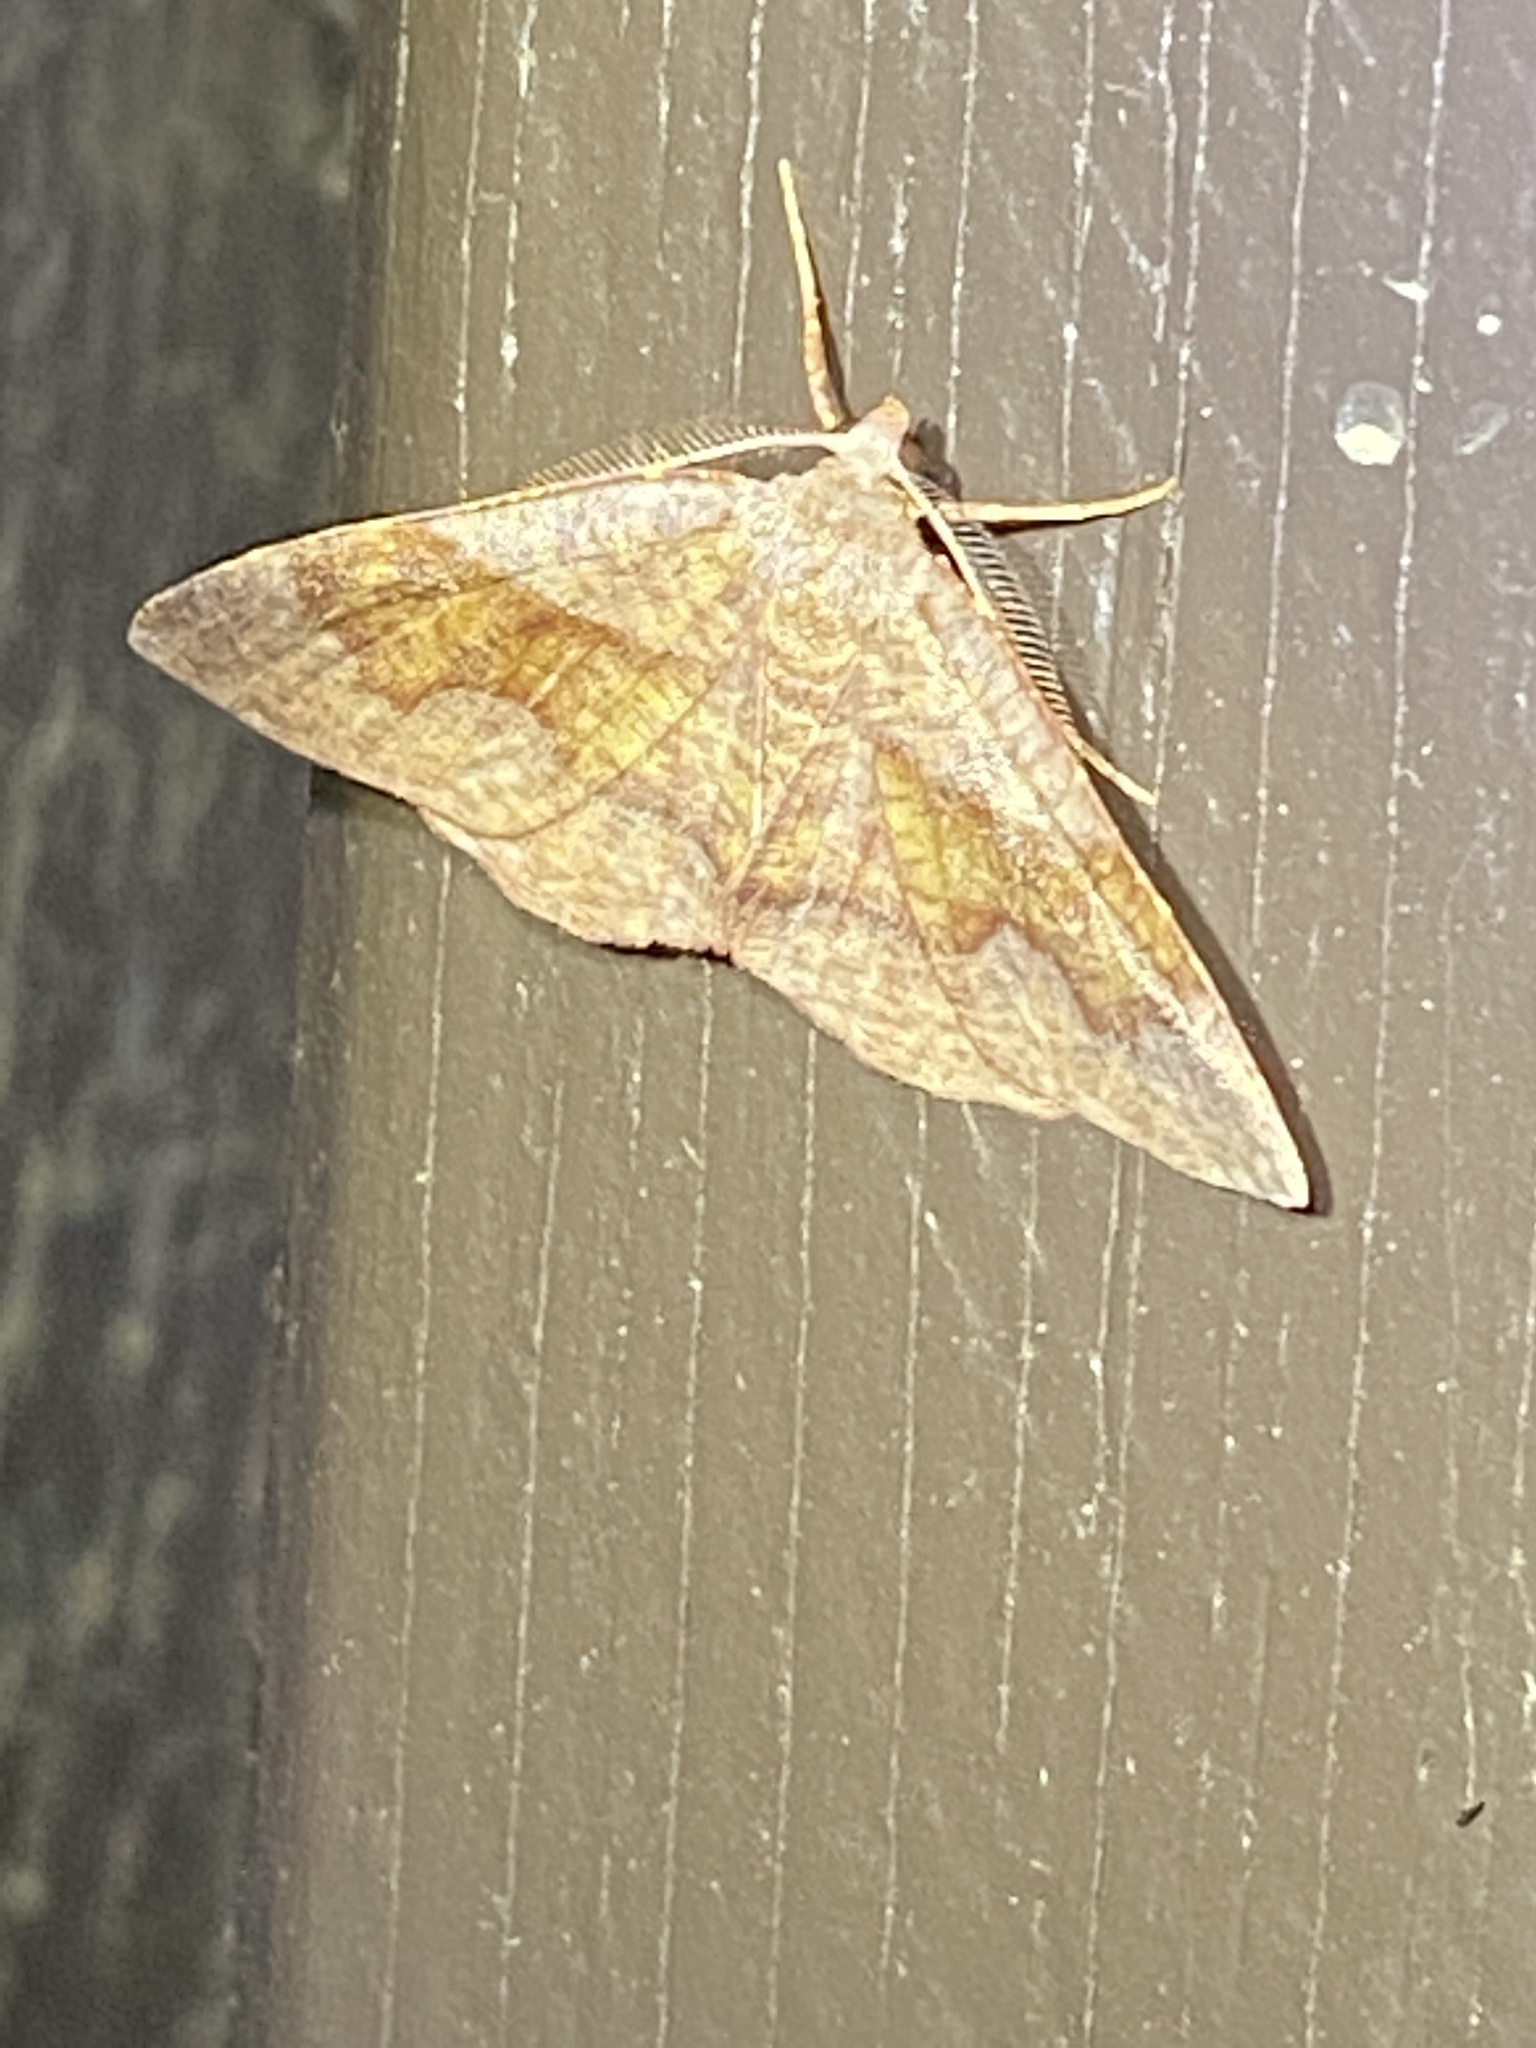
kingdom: Animalia
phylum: Arthropoda
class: Insecta
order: Lepidoptera
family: Geometridae
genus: Plagodis
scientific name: Plagodis pulveraria
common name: Barred umber
